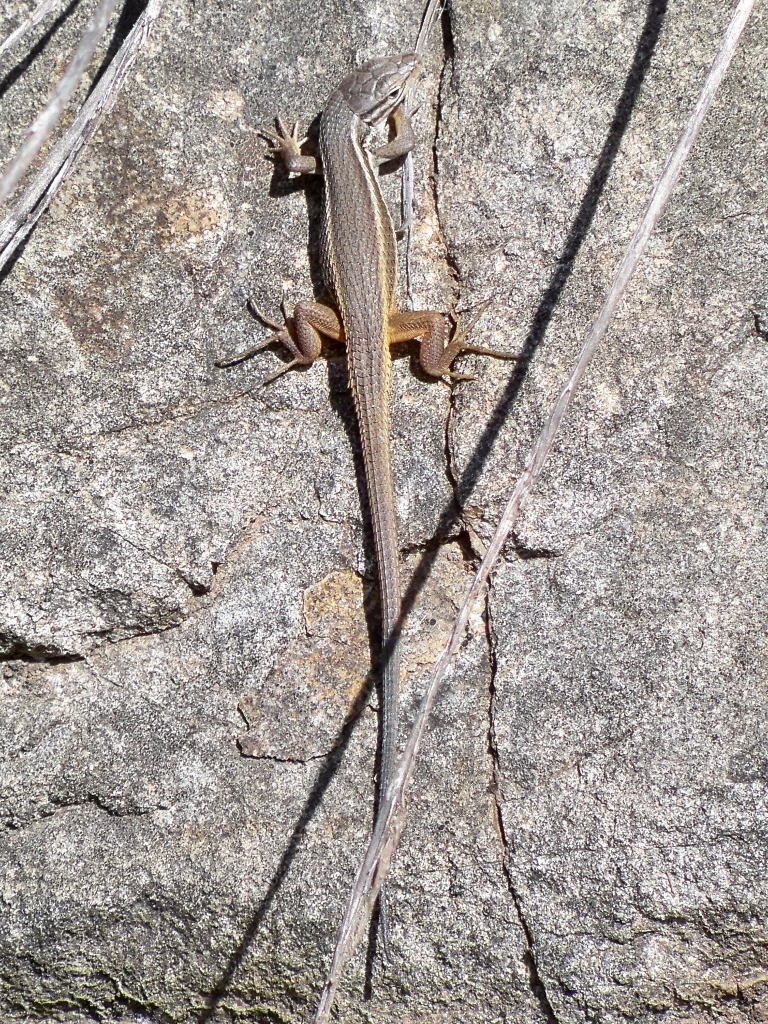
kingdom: Animalia
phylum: Chordata
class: Squamata
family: Lacertidae
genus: Psammodromus
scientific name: Psammodromus algirus
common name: Algerian psammodromus
